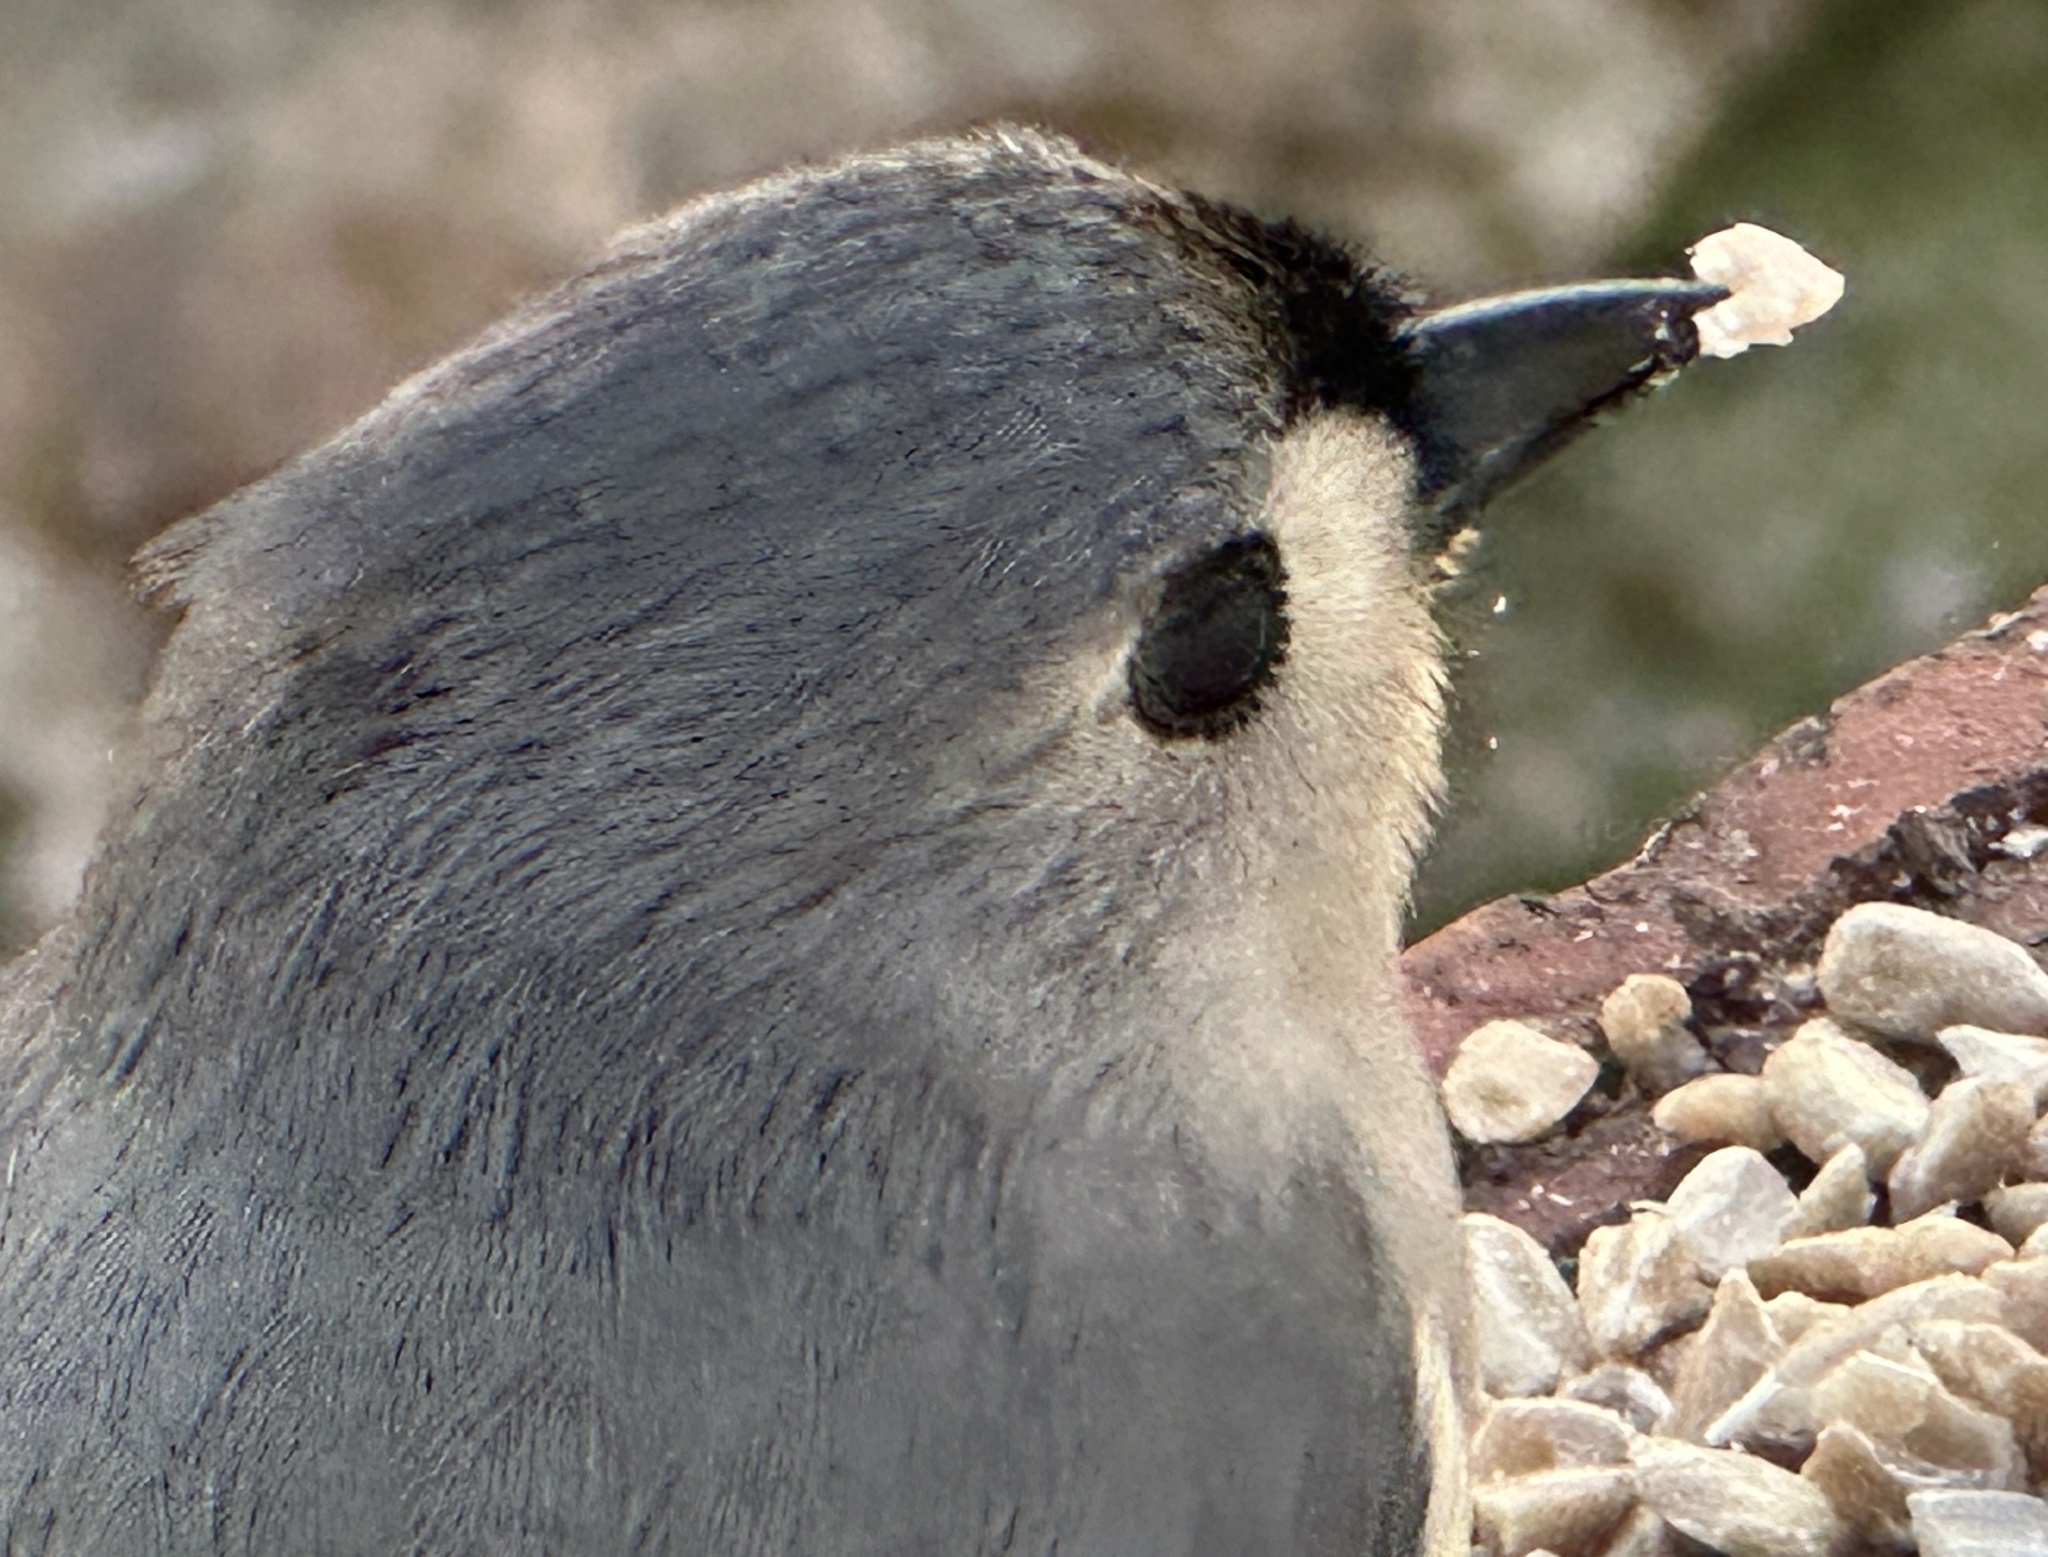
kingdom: Animalia
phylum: Chordata
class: Aves
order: Passeriformes
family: Paridae
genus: Baeolophus
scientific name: Baeolophus bicolor
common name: Tufted titmouse
